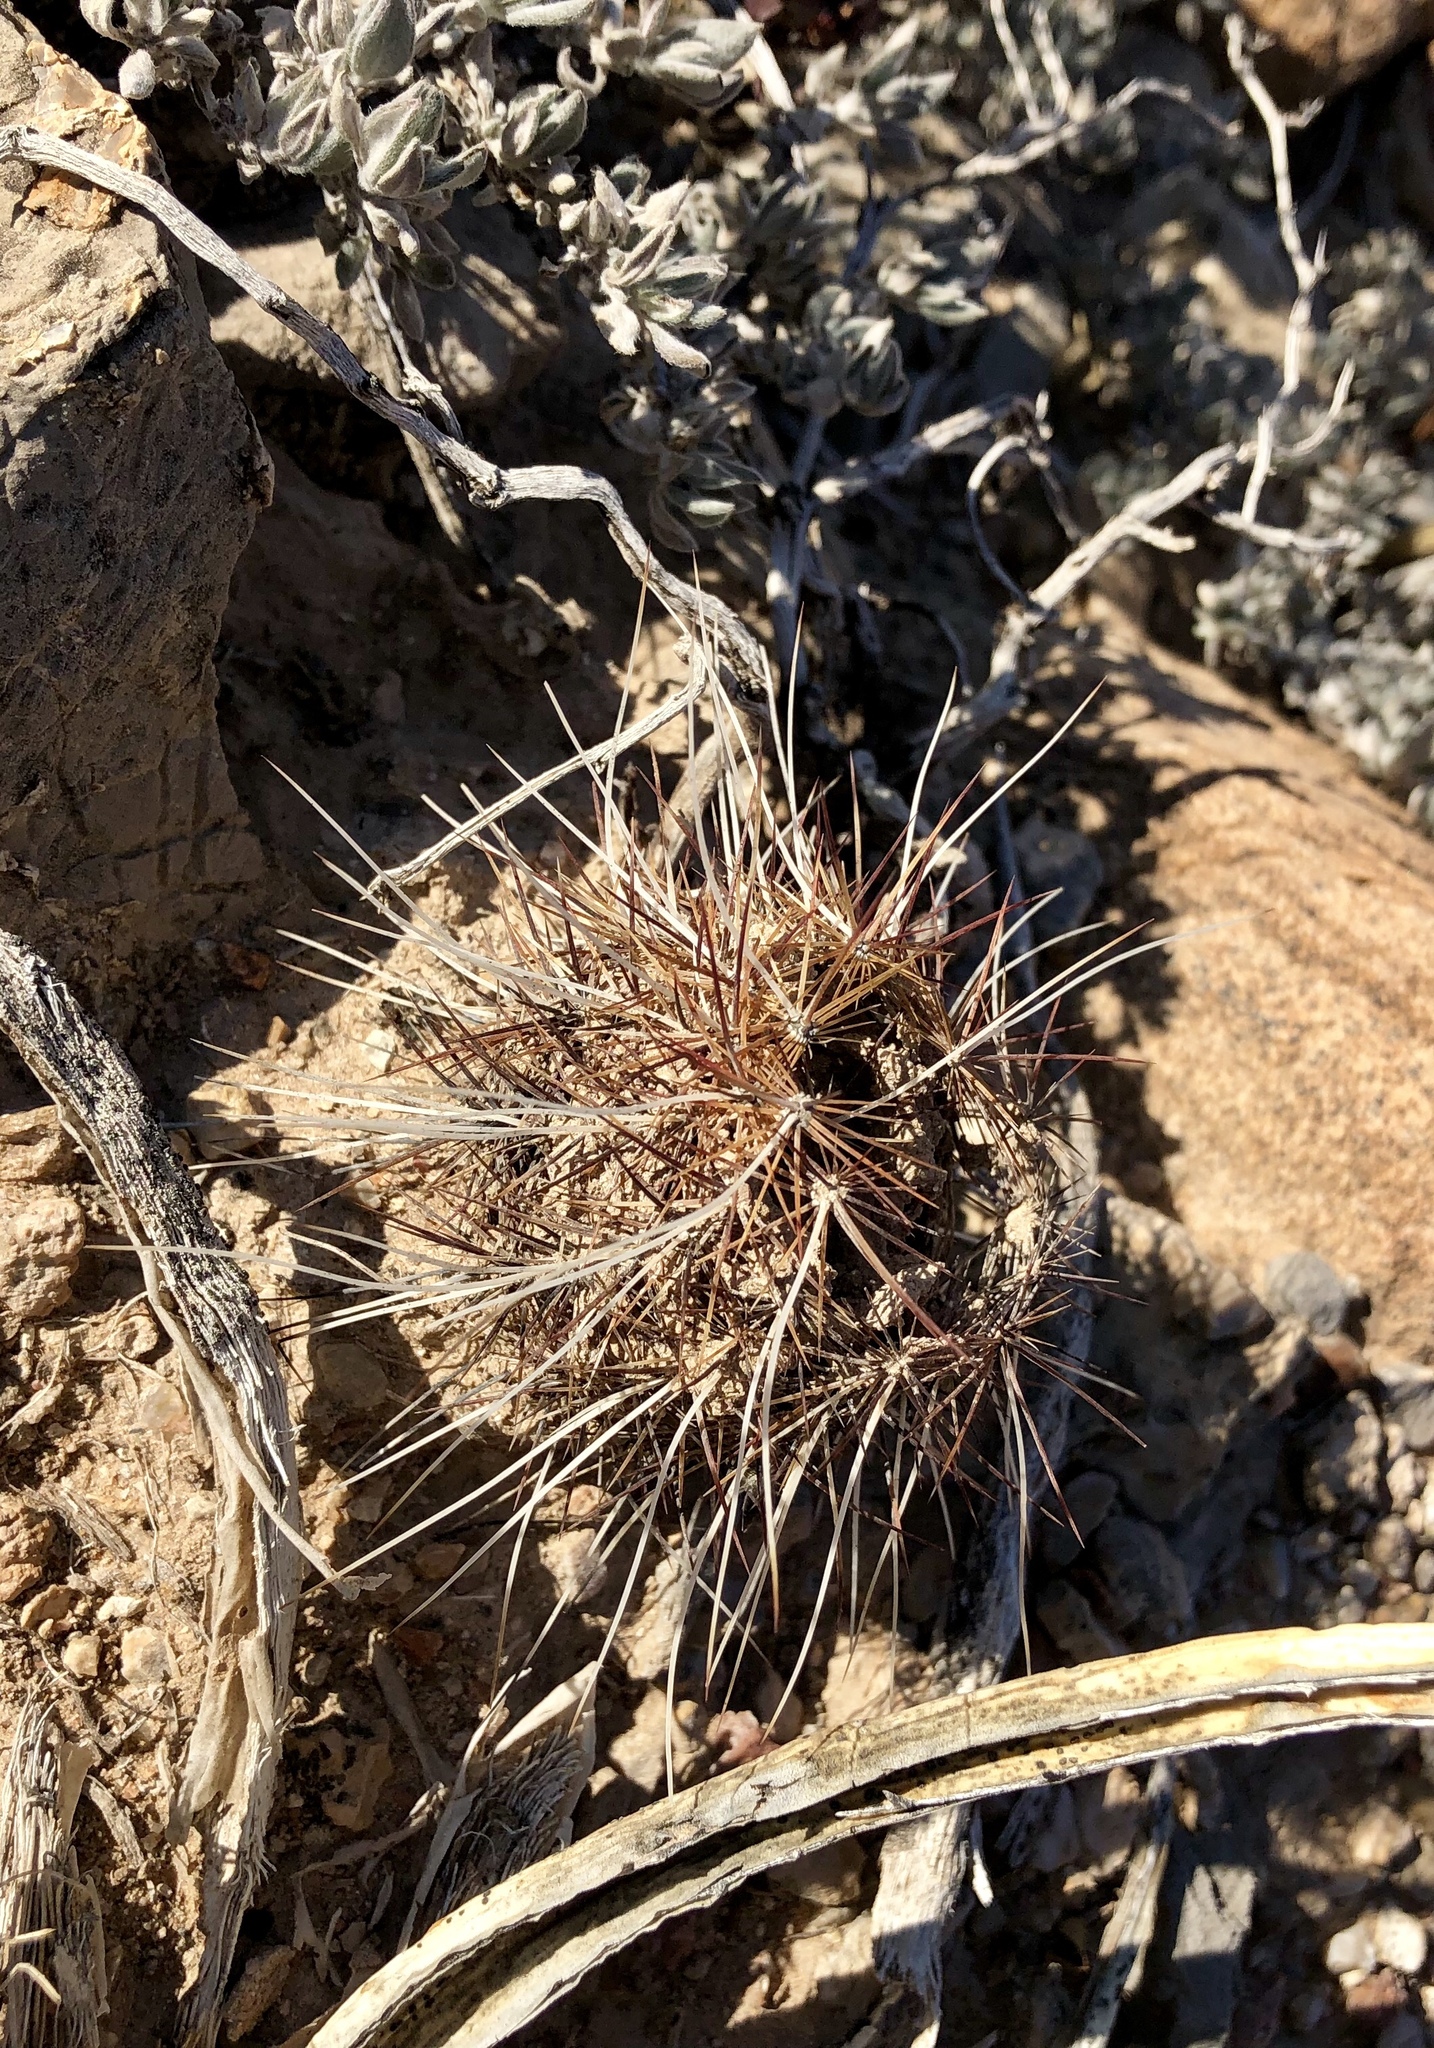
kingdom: Plantae
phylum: Tracheophyta
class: Magnoliopsida
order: Caryophyllales
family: Cactaceae
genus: Echinocereus
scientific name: Echinocereus viridiflorus
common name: Nylon hedgehog cactus
